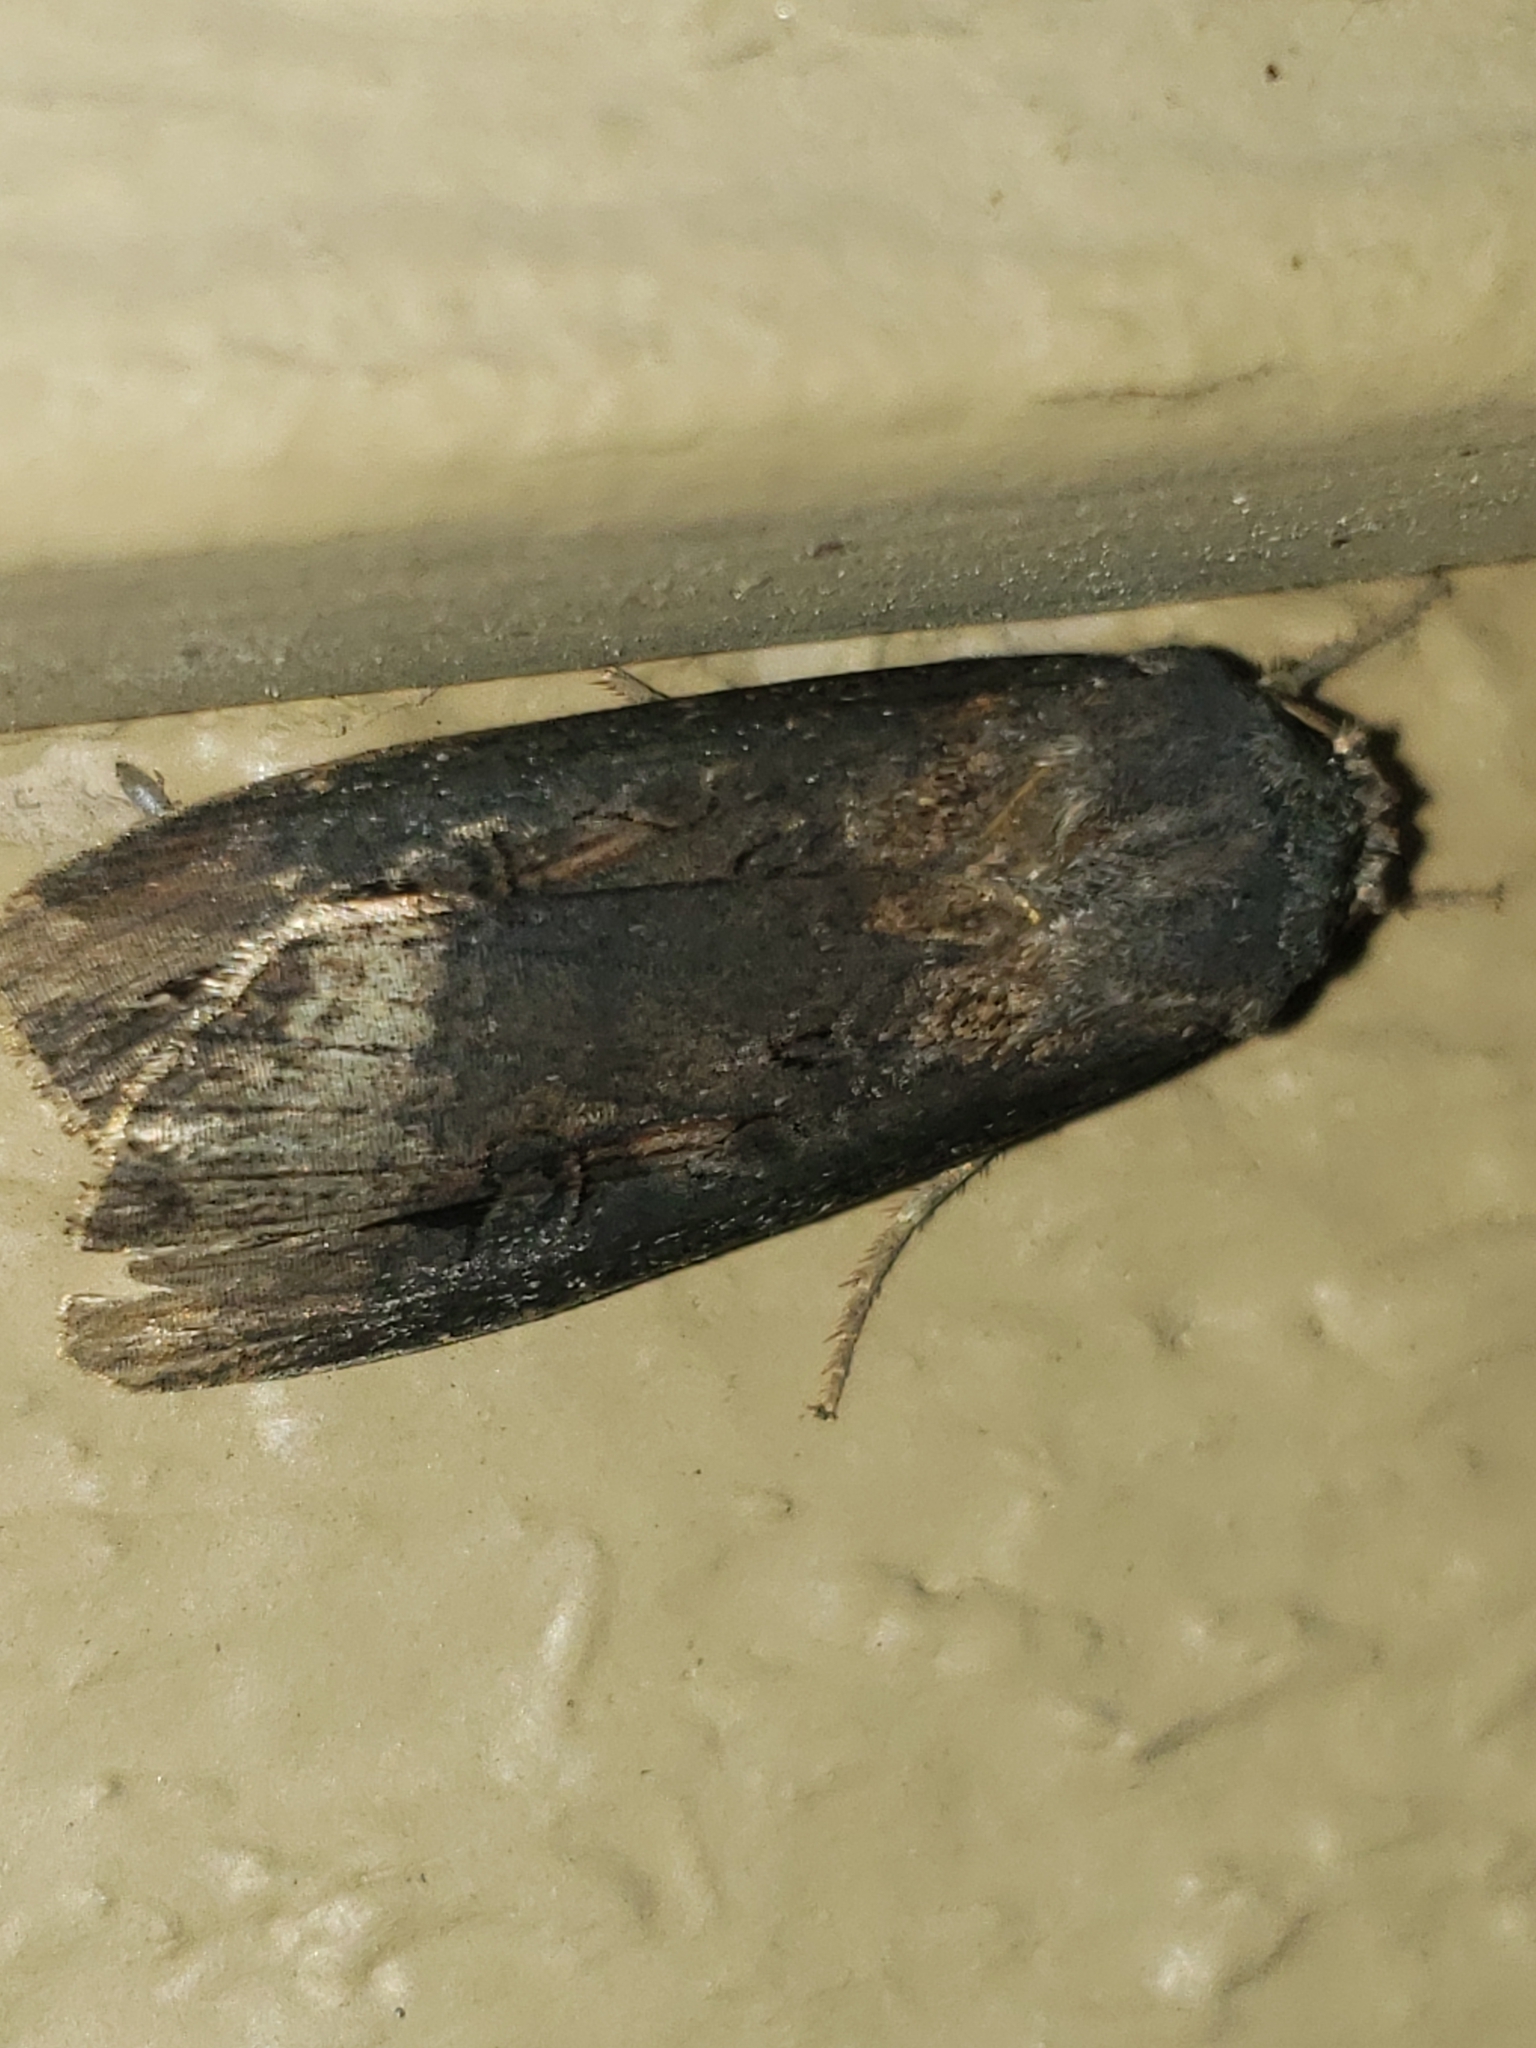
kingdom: Animalia
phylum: Arthropoda
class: Insecta
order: Lepidoptera
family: Noctuidae
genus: Agrotis
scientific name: Agrotis ipsilon
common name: Dark sword-grass
